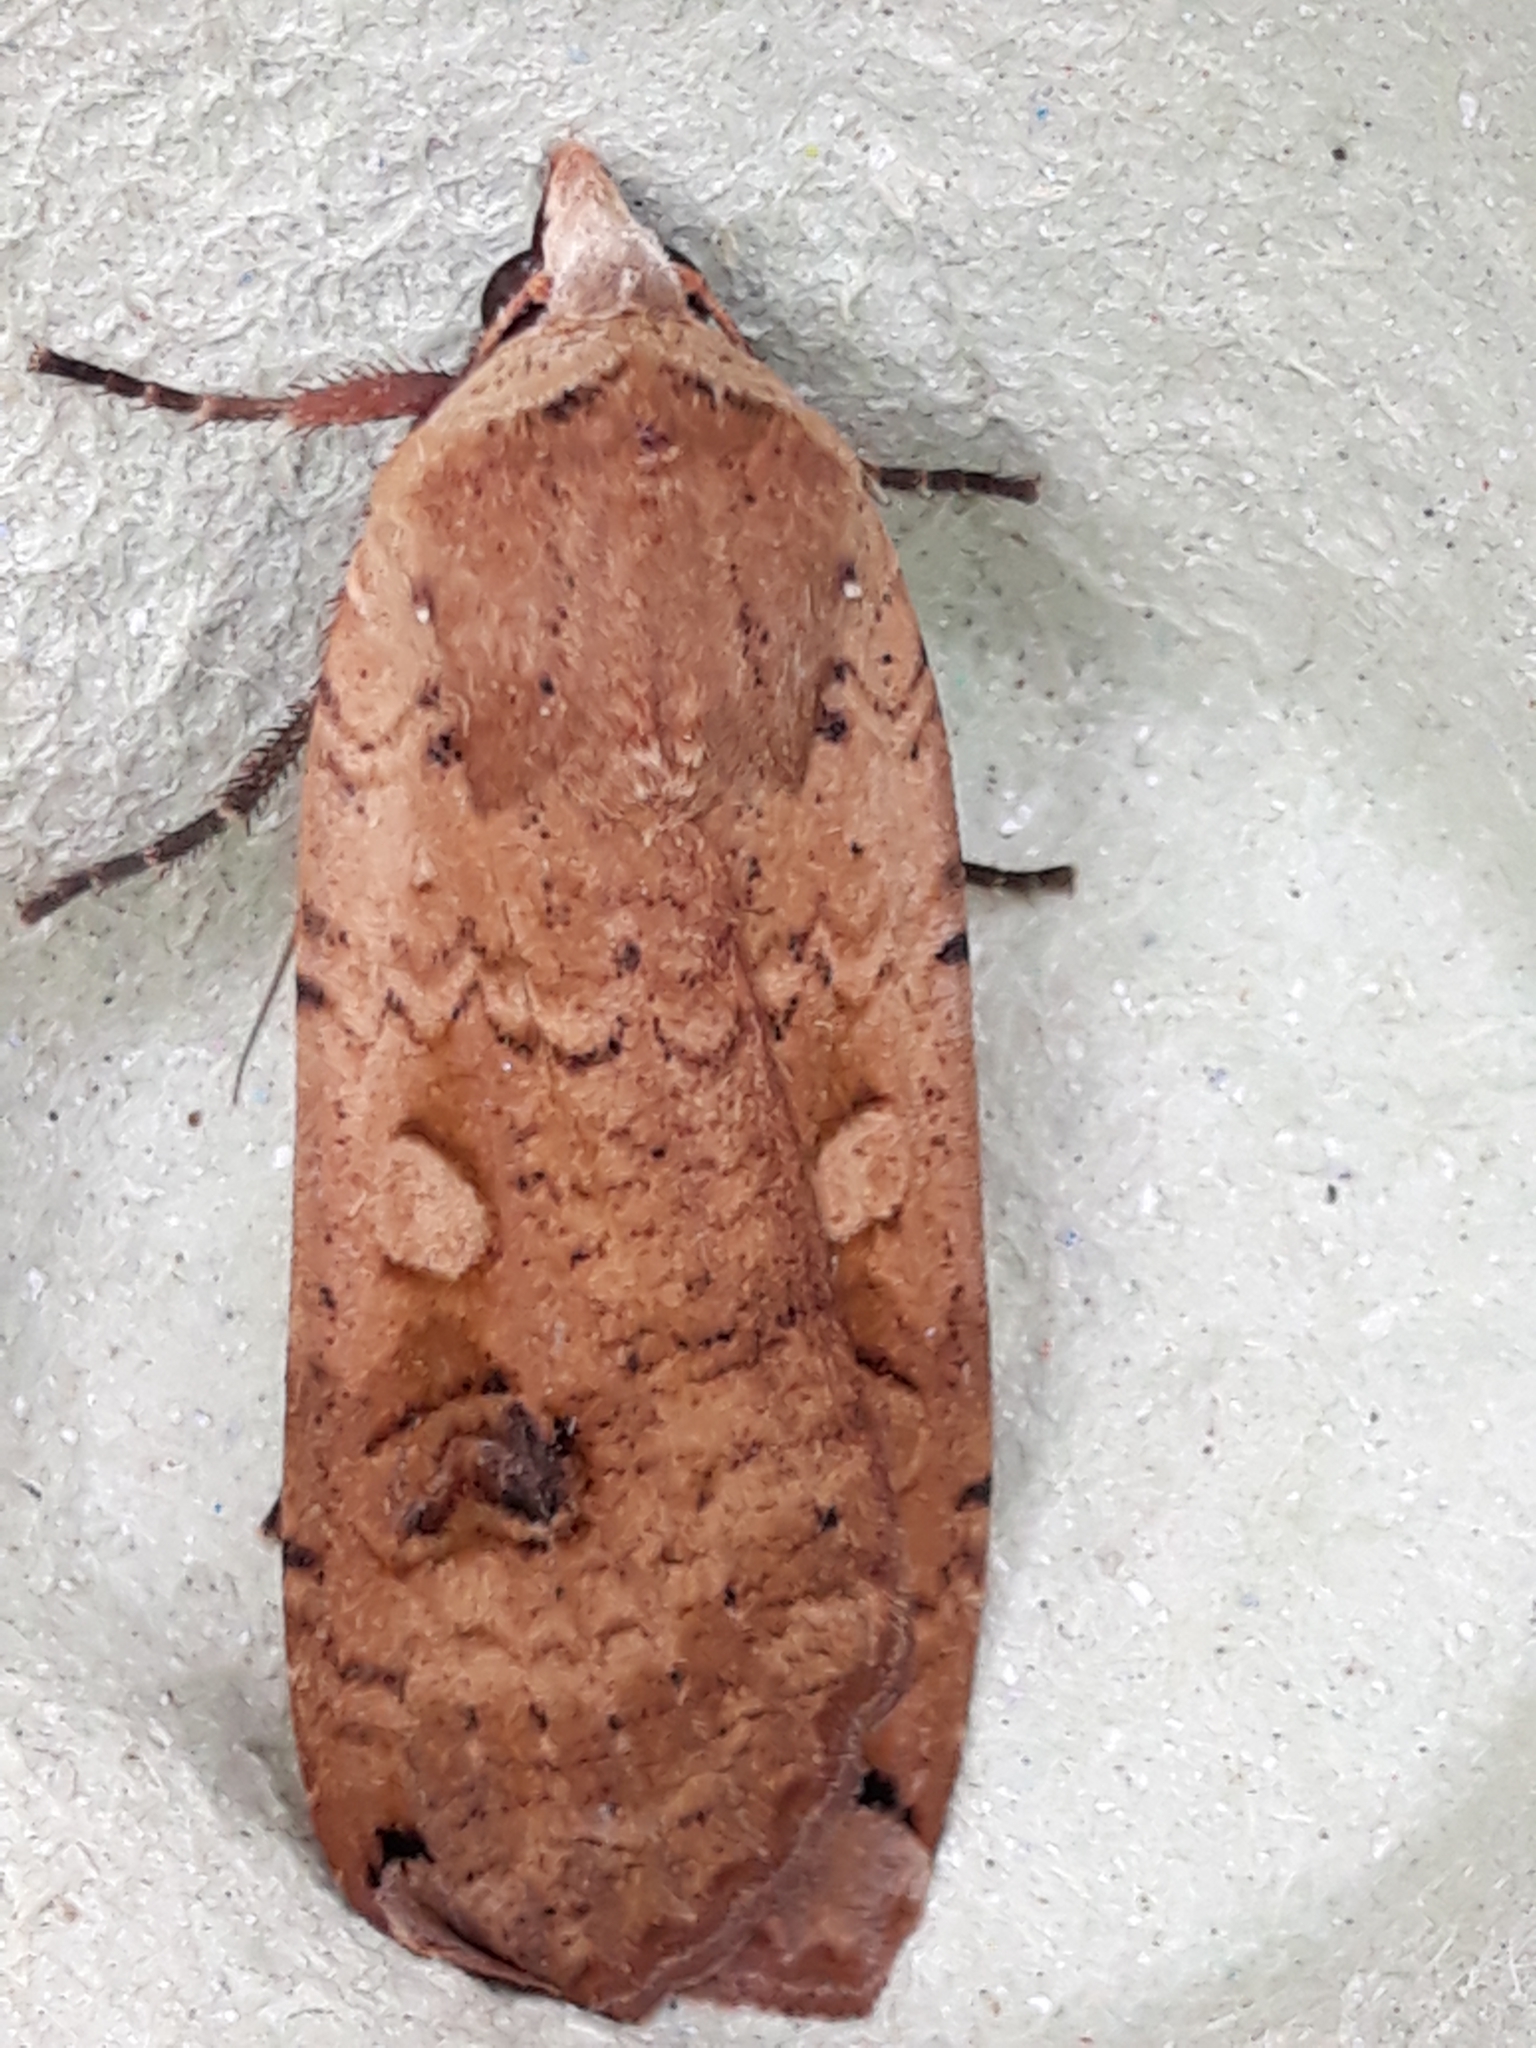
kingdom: Animalia
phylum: Arthropoda
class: Insecta
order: Lepidoptera
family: Noctuidae
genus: Noctua
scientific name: Noctua pronuba
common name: Large yellow underwing
